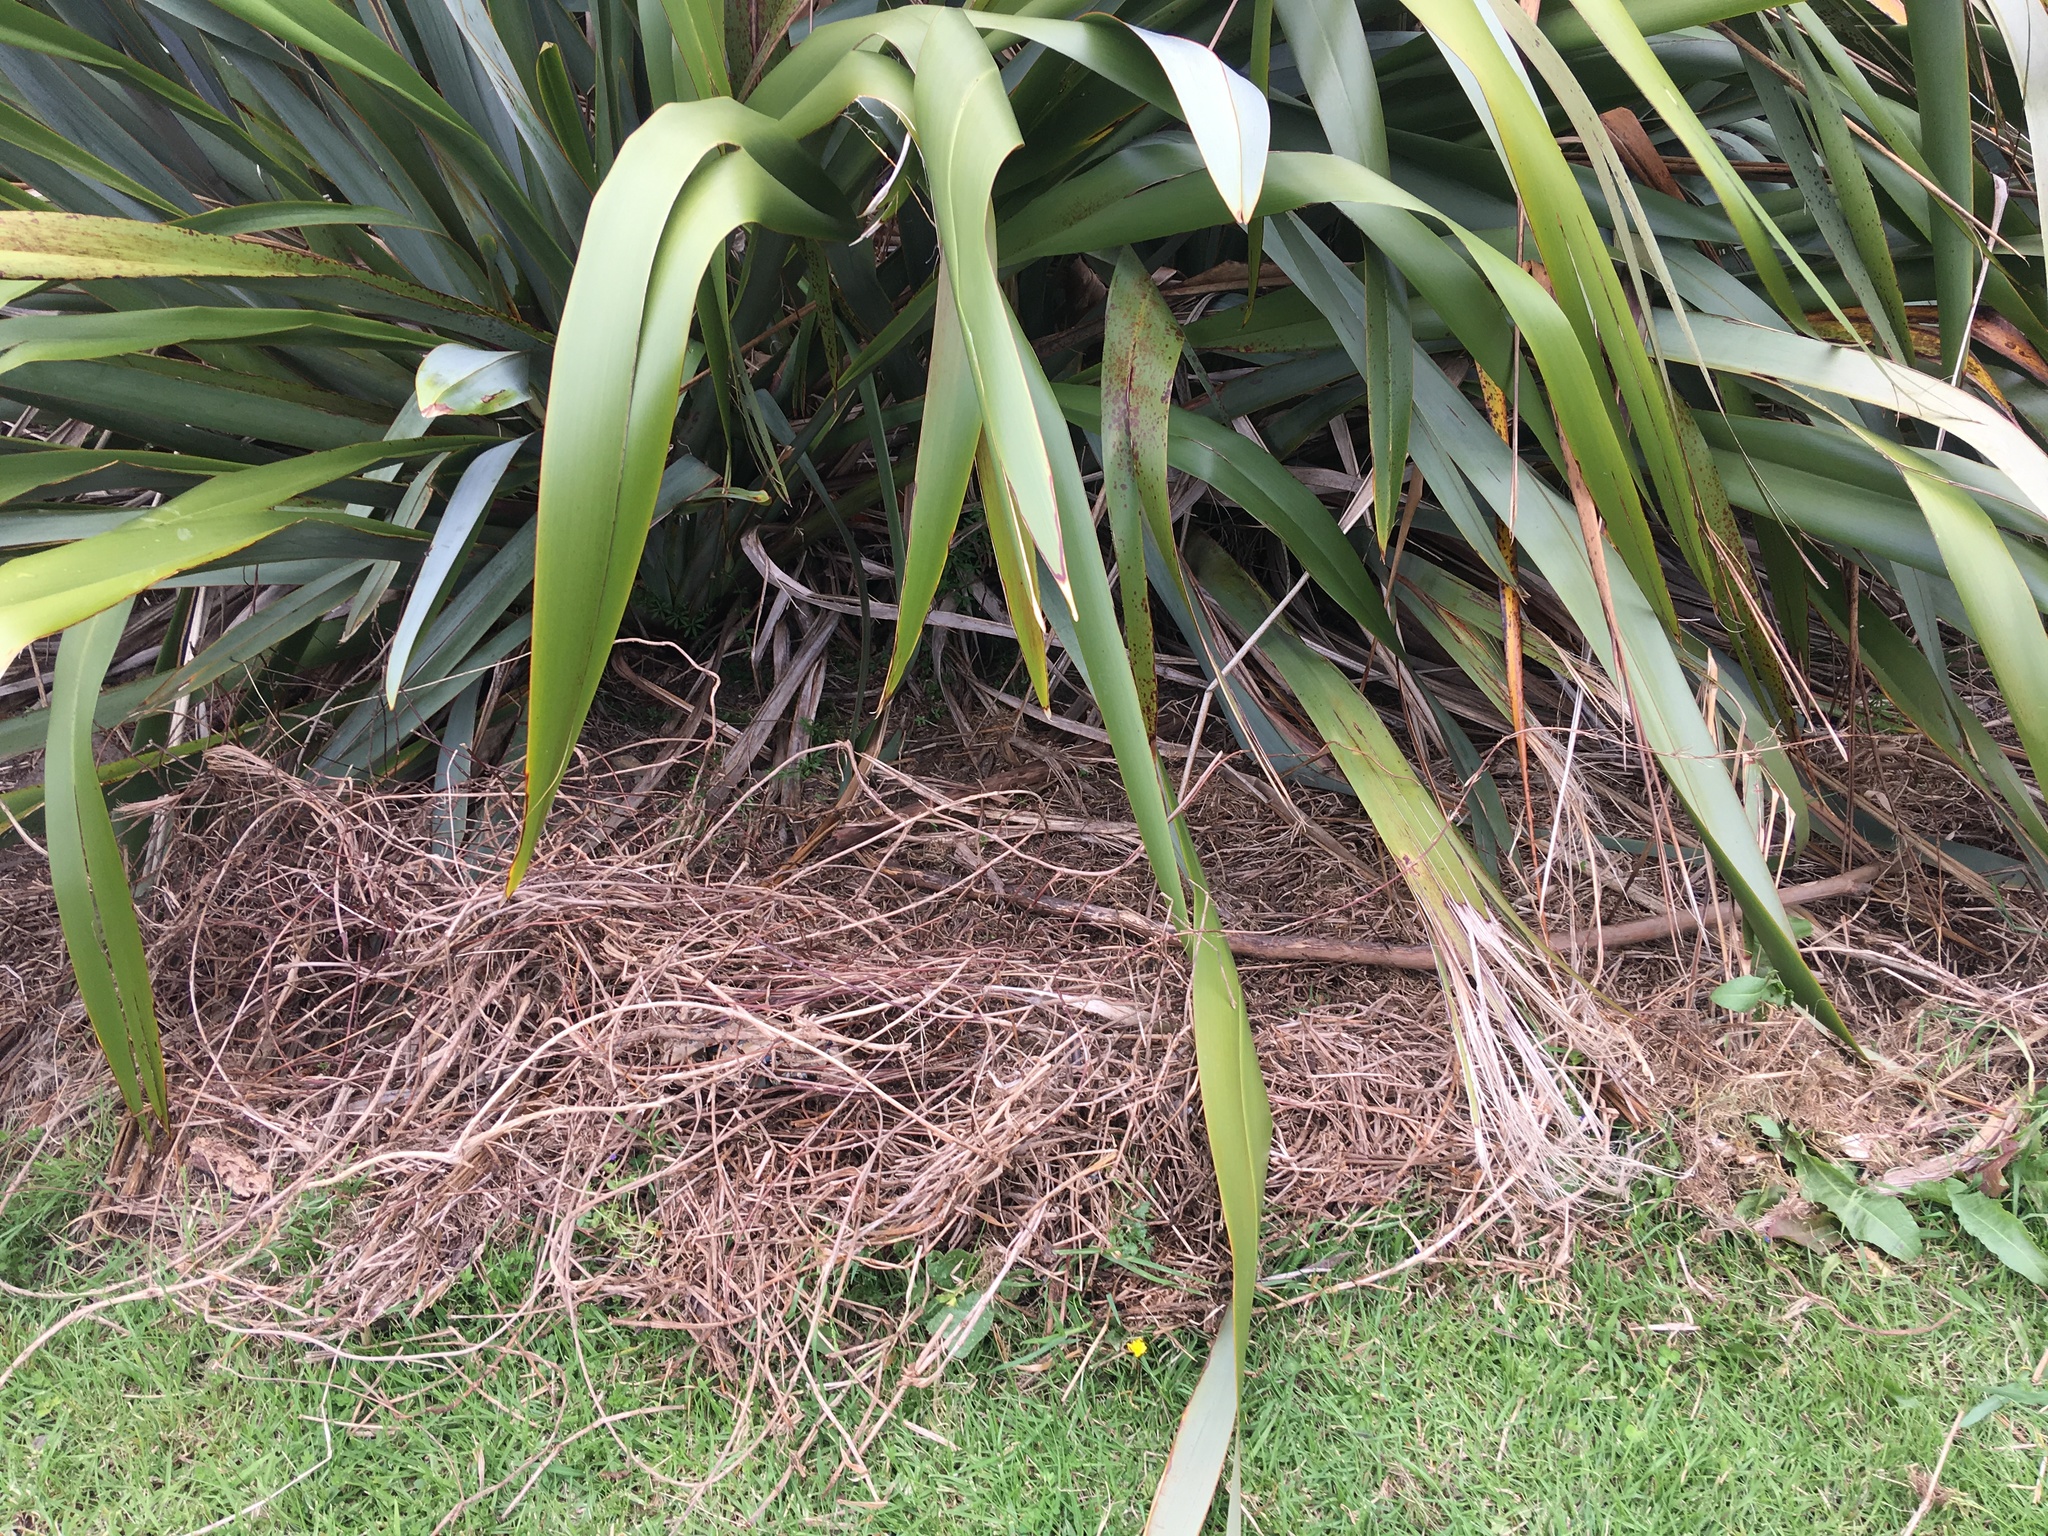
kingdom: Plantae
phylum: Tracheophyta
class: Liliopsida
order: Asparagales
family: Asphodelaceae
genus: Phormium
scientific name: Phormium tenax
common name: New zealand flax
